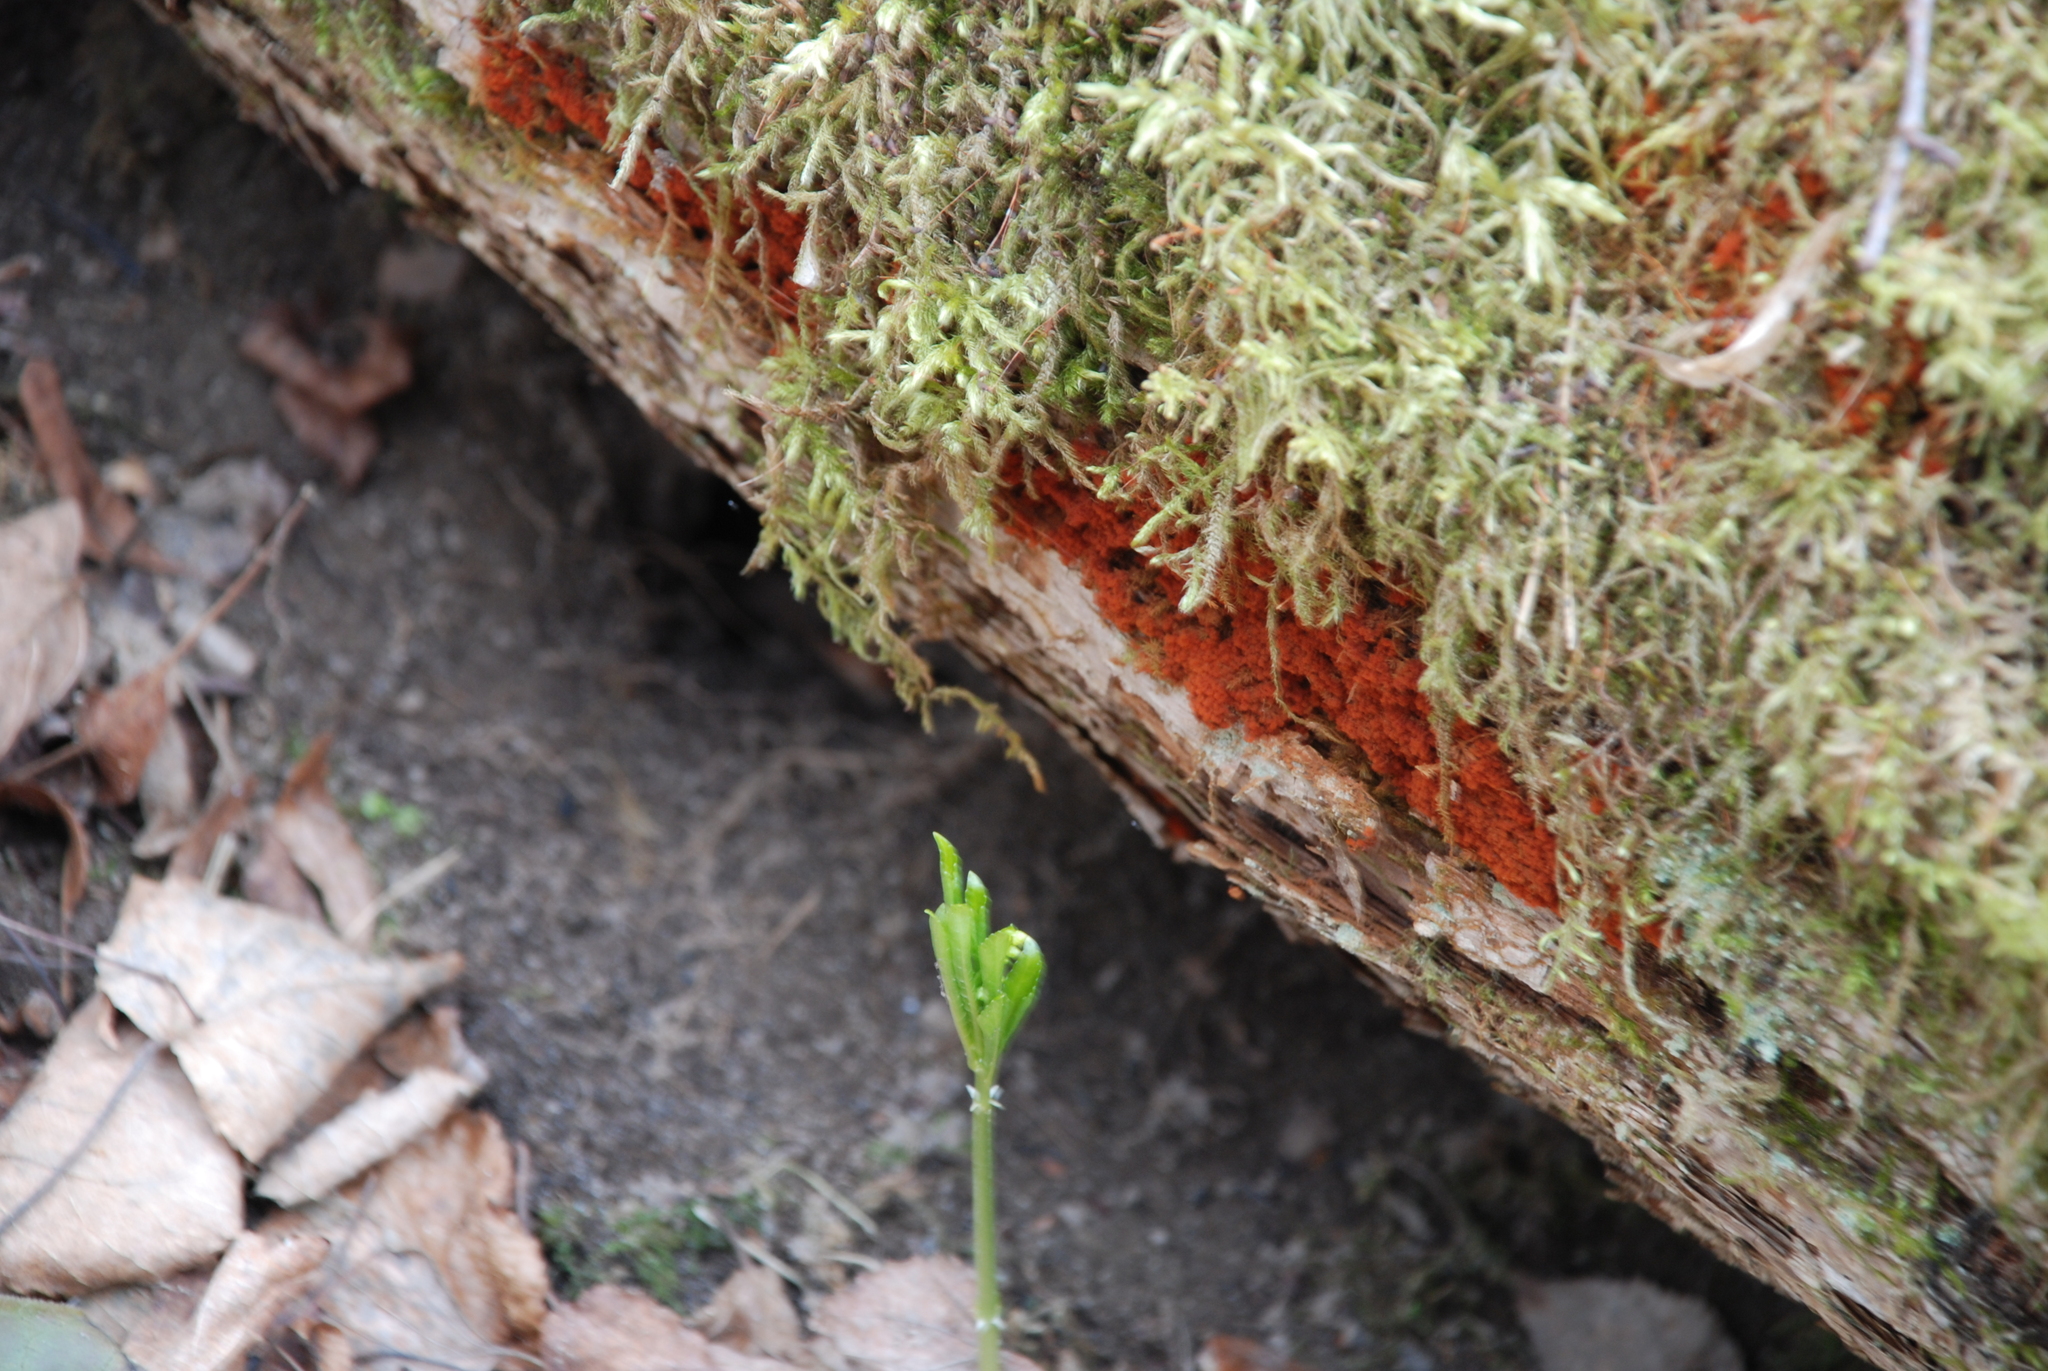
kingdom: Protozoa
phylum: Mycetozoa
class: Myxomycetes
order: Trichiales
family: Trichiaceae
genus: Metatrichia
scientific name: Metatrichia vesparia
